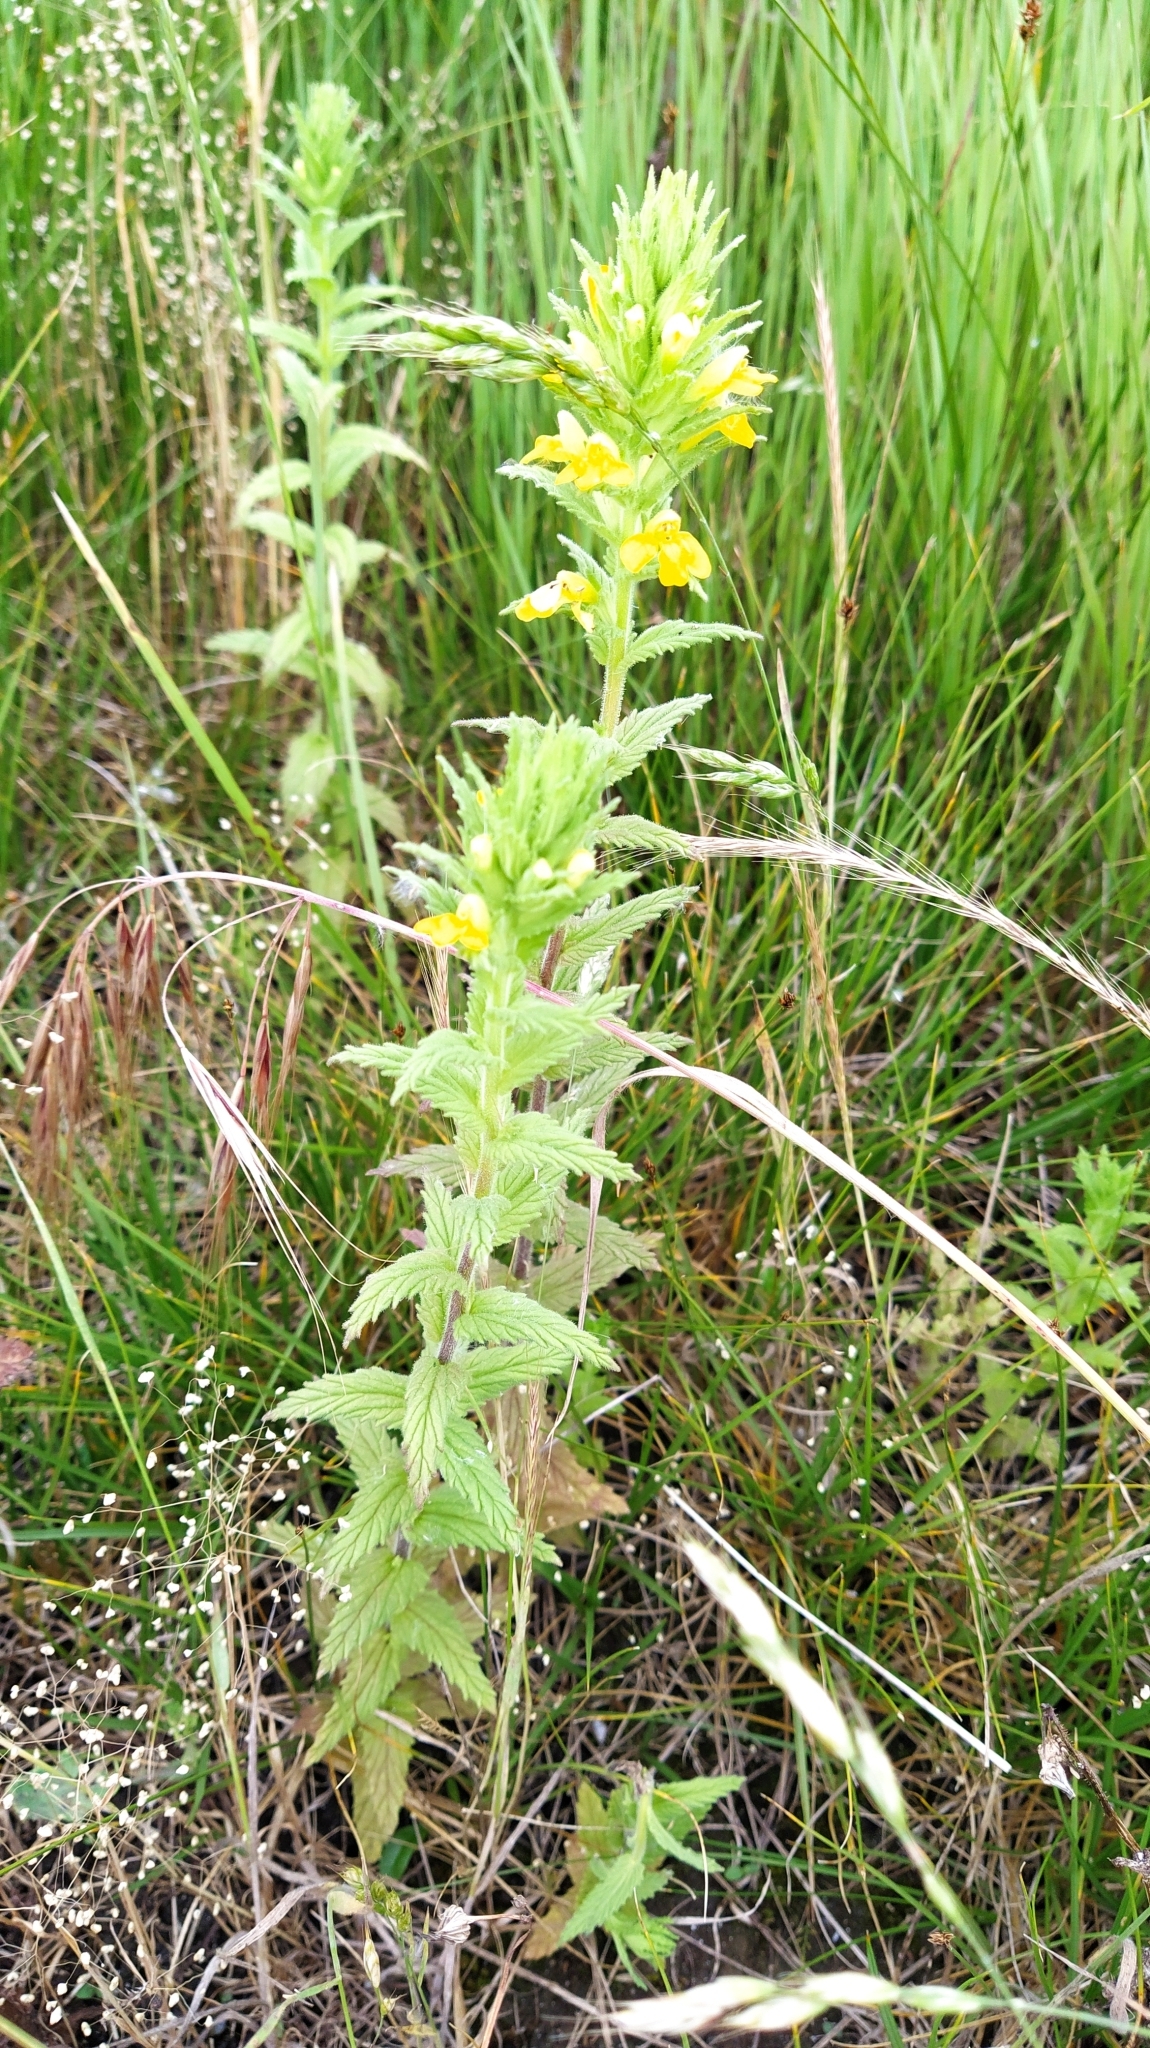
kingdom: Plantae
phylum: Tracheophyta
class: Magnoliopsida
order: Lamiales
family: Orobanchaceae
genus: Bellardia
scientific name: Bellardia viscosa
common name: Sticky parentucellia
